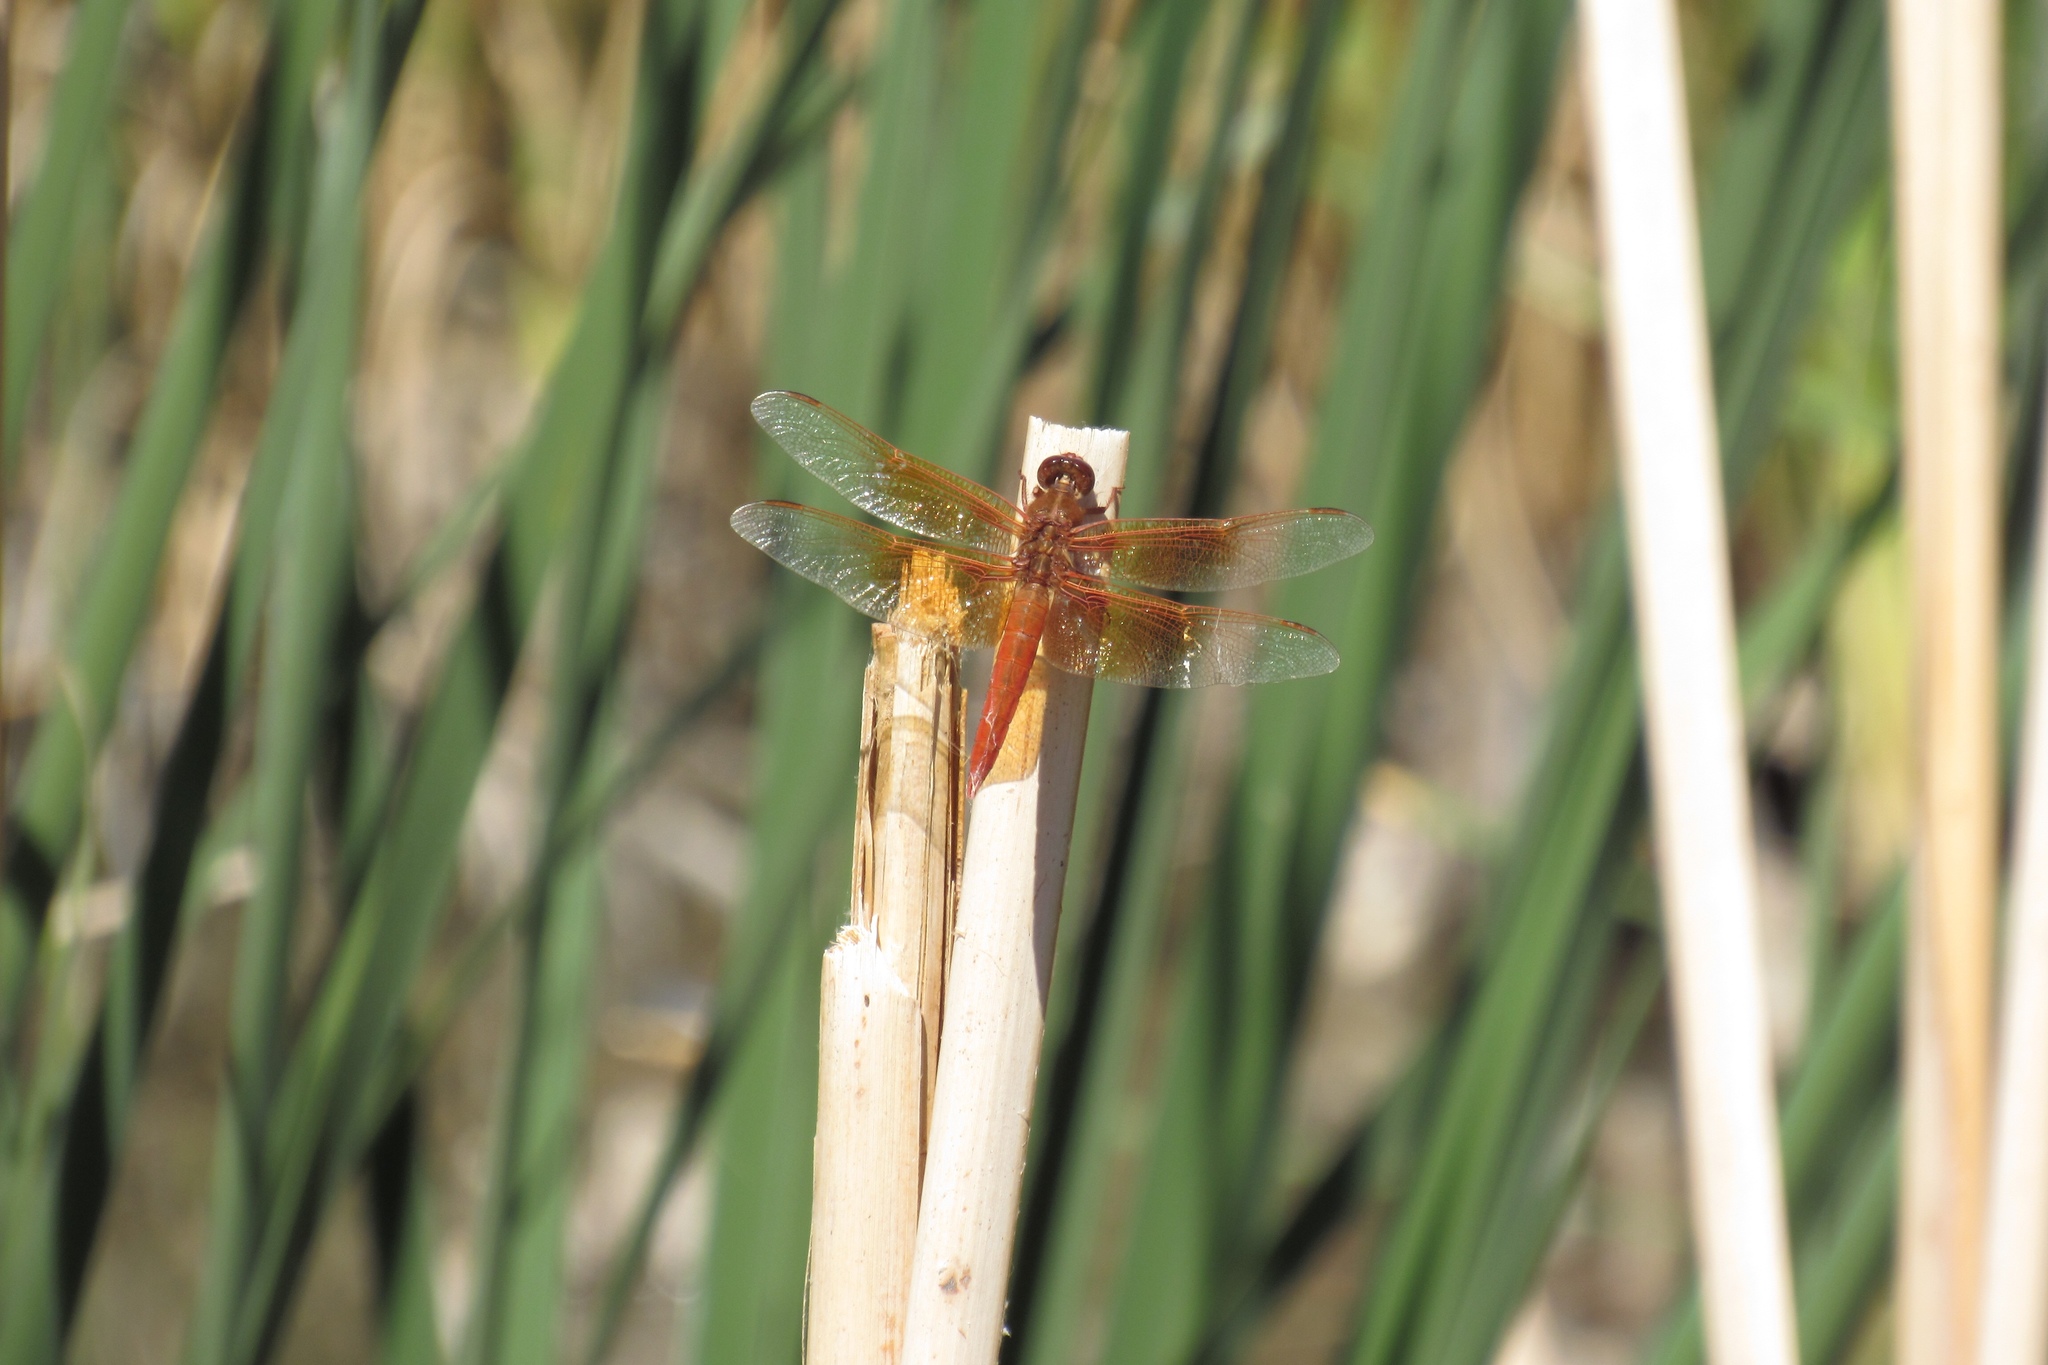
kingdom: Animalia
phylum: Arthropoda
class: Insecta
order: Odonata
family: Libellulidae
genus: Libellula
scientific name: Libellula saturata
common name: Flame skimmer
